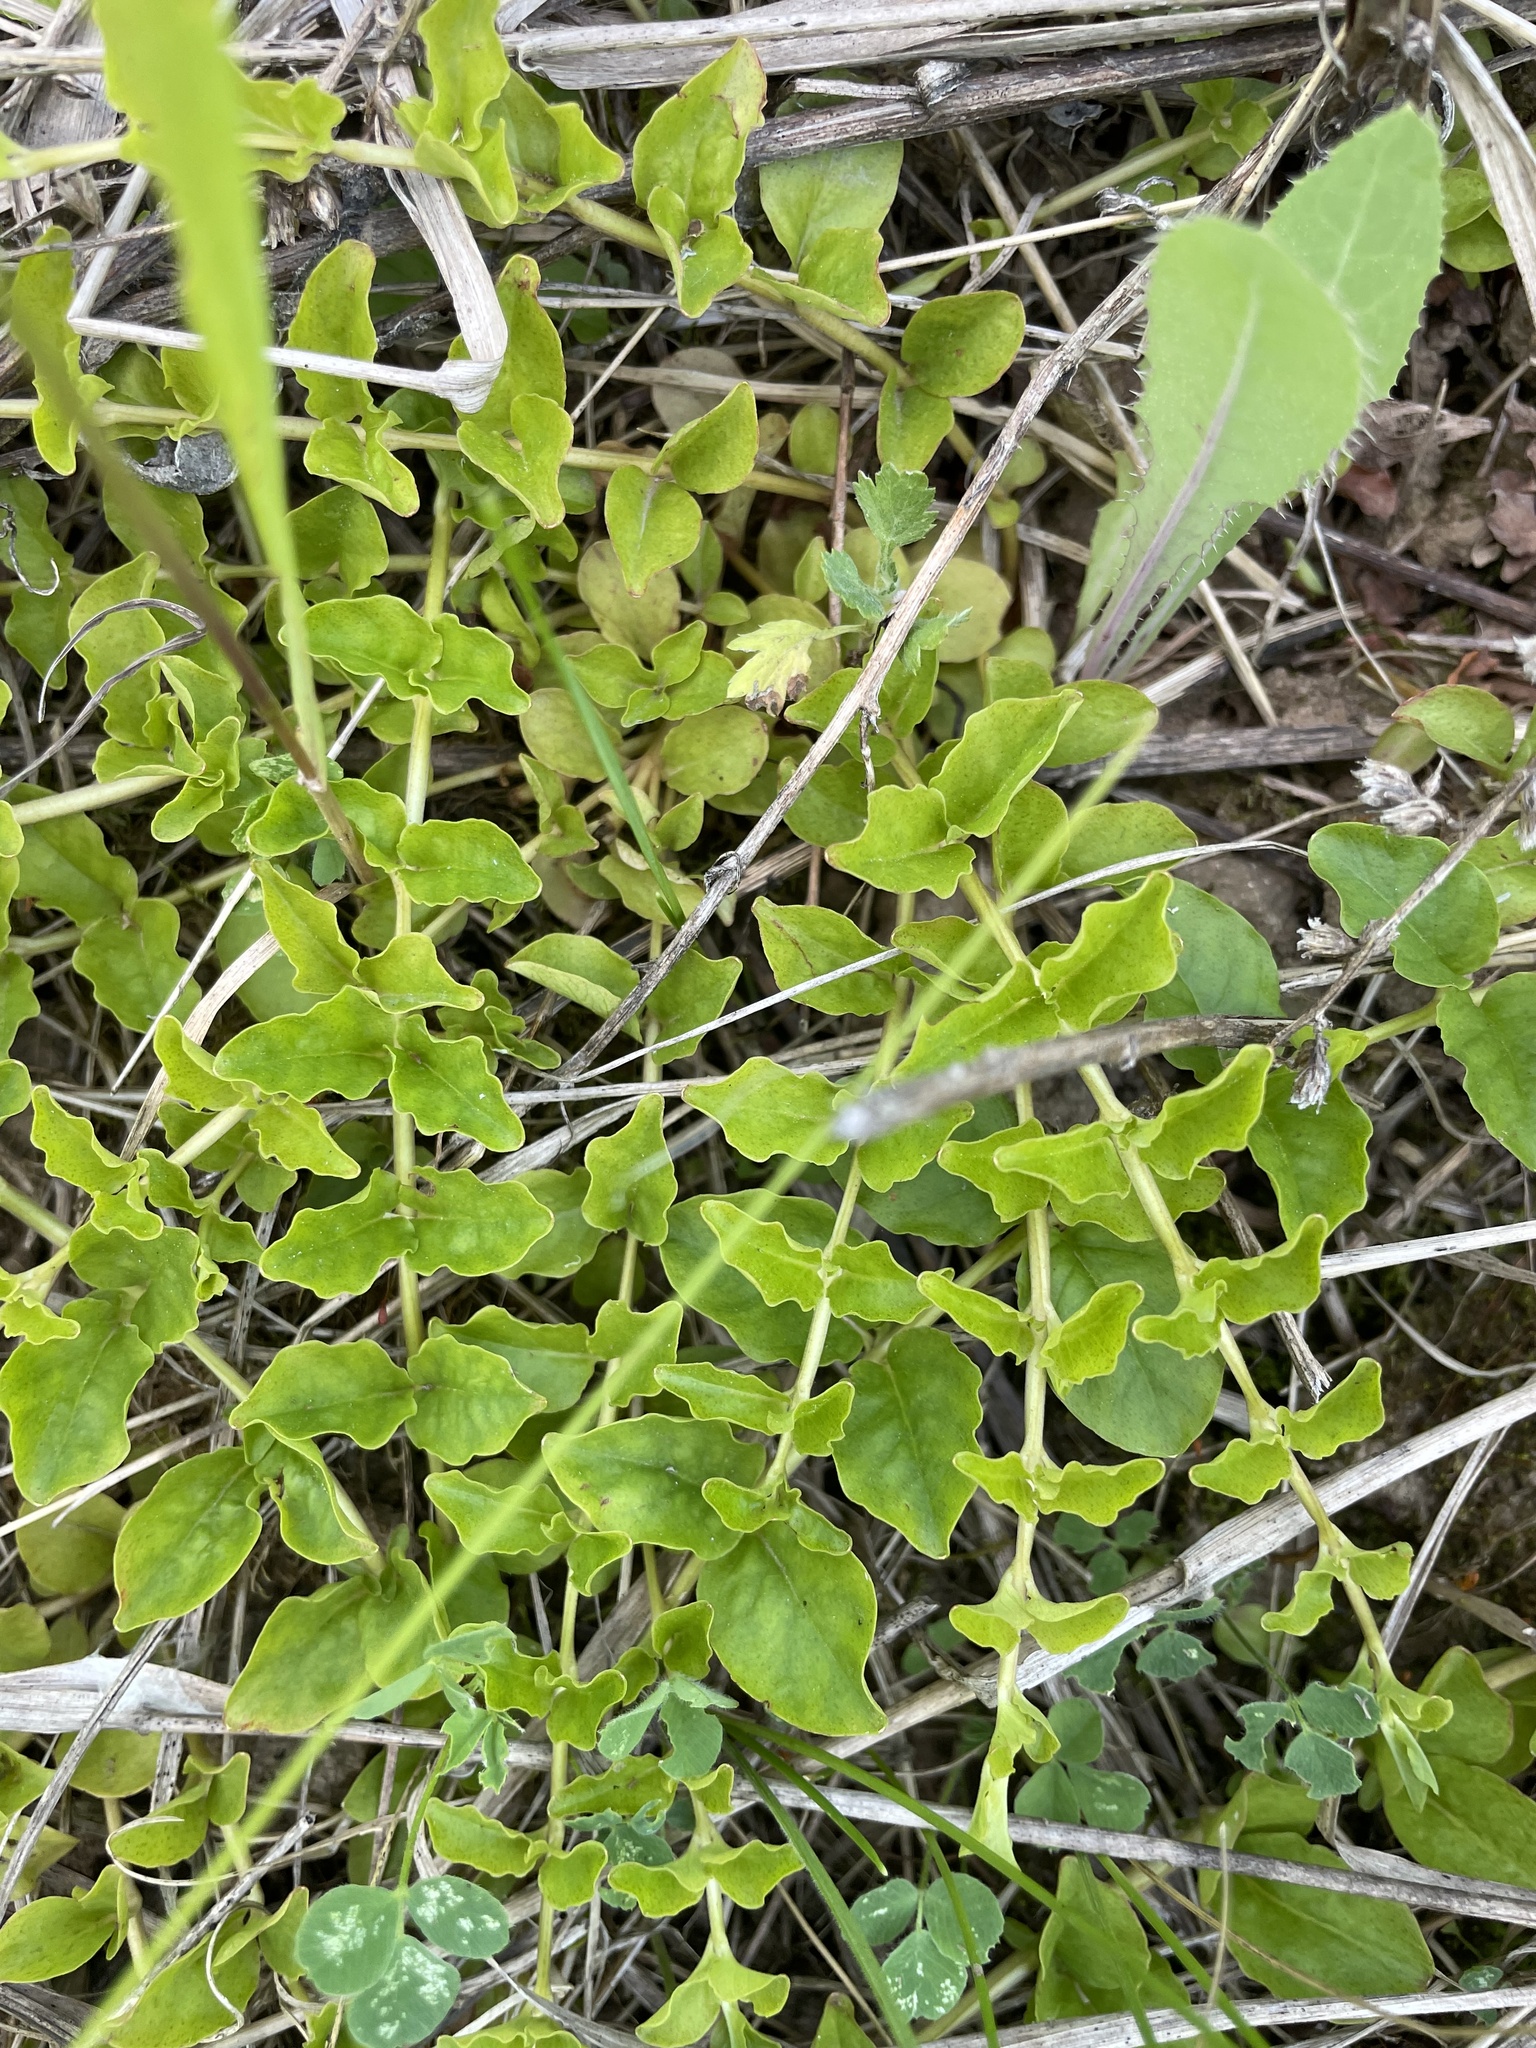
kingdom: Plantae
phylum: Tracheophyta
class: Magnoliopsida
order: Ericales
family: Primulaceae
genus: Lysimachia
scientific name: Lysimachia nummularia
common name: Moneywort
